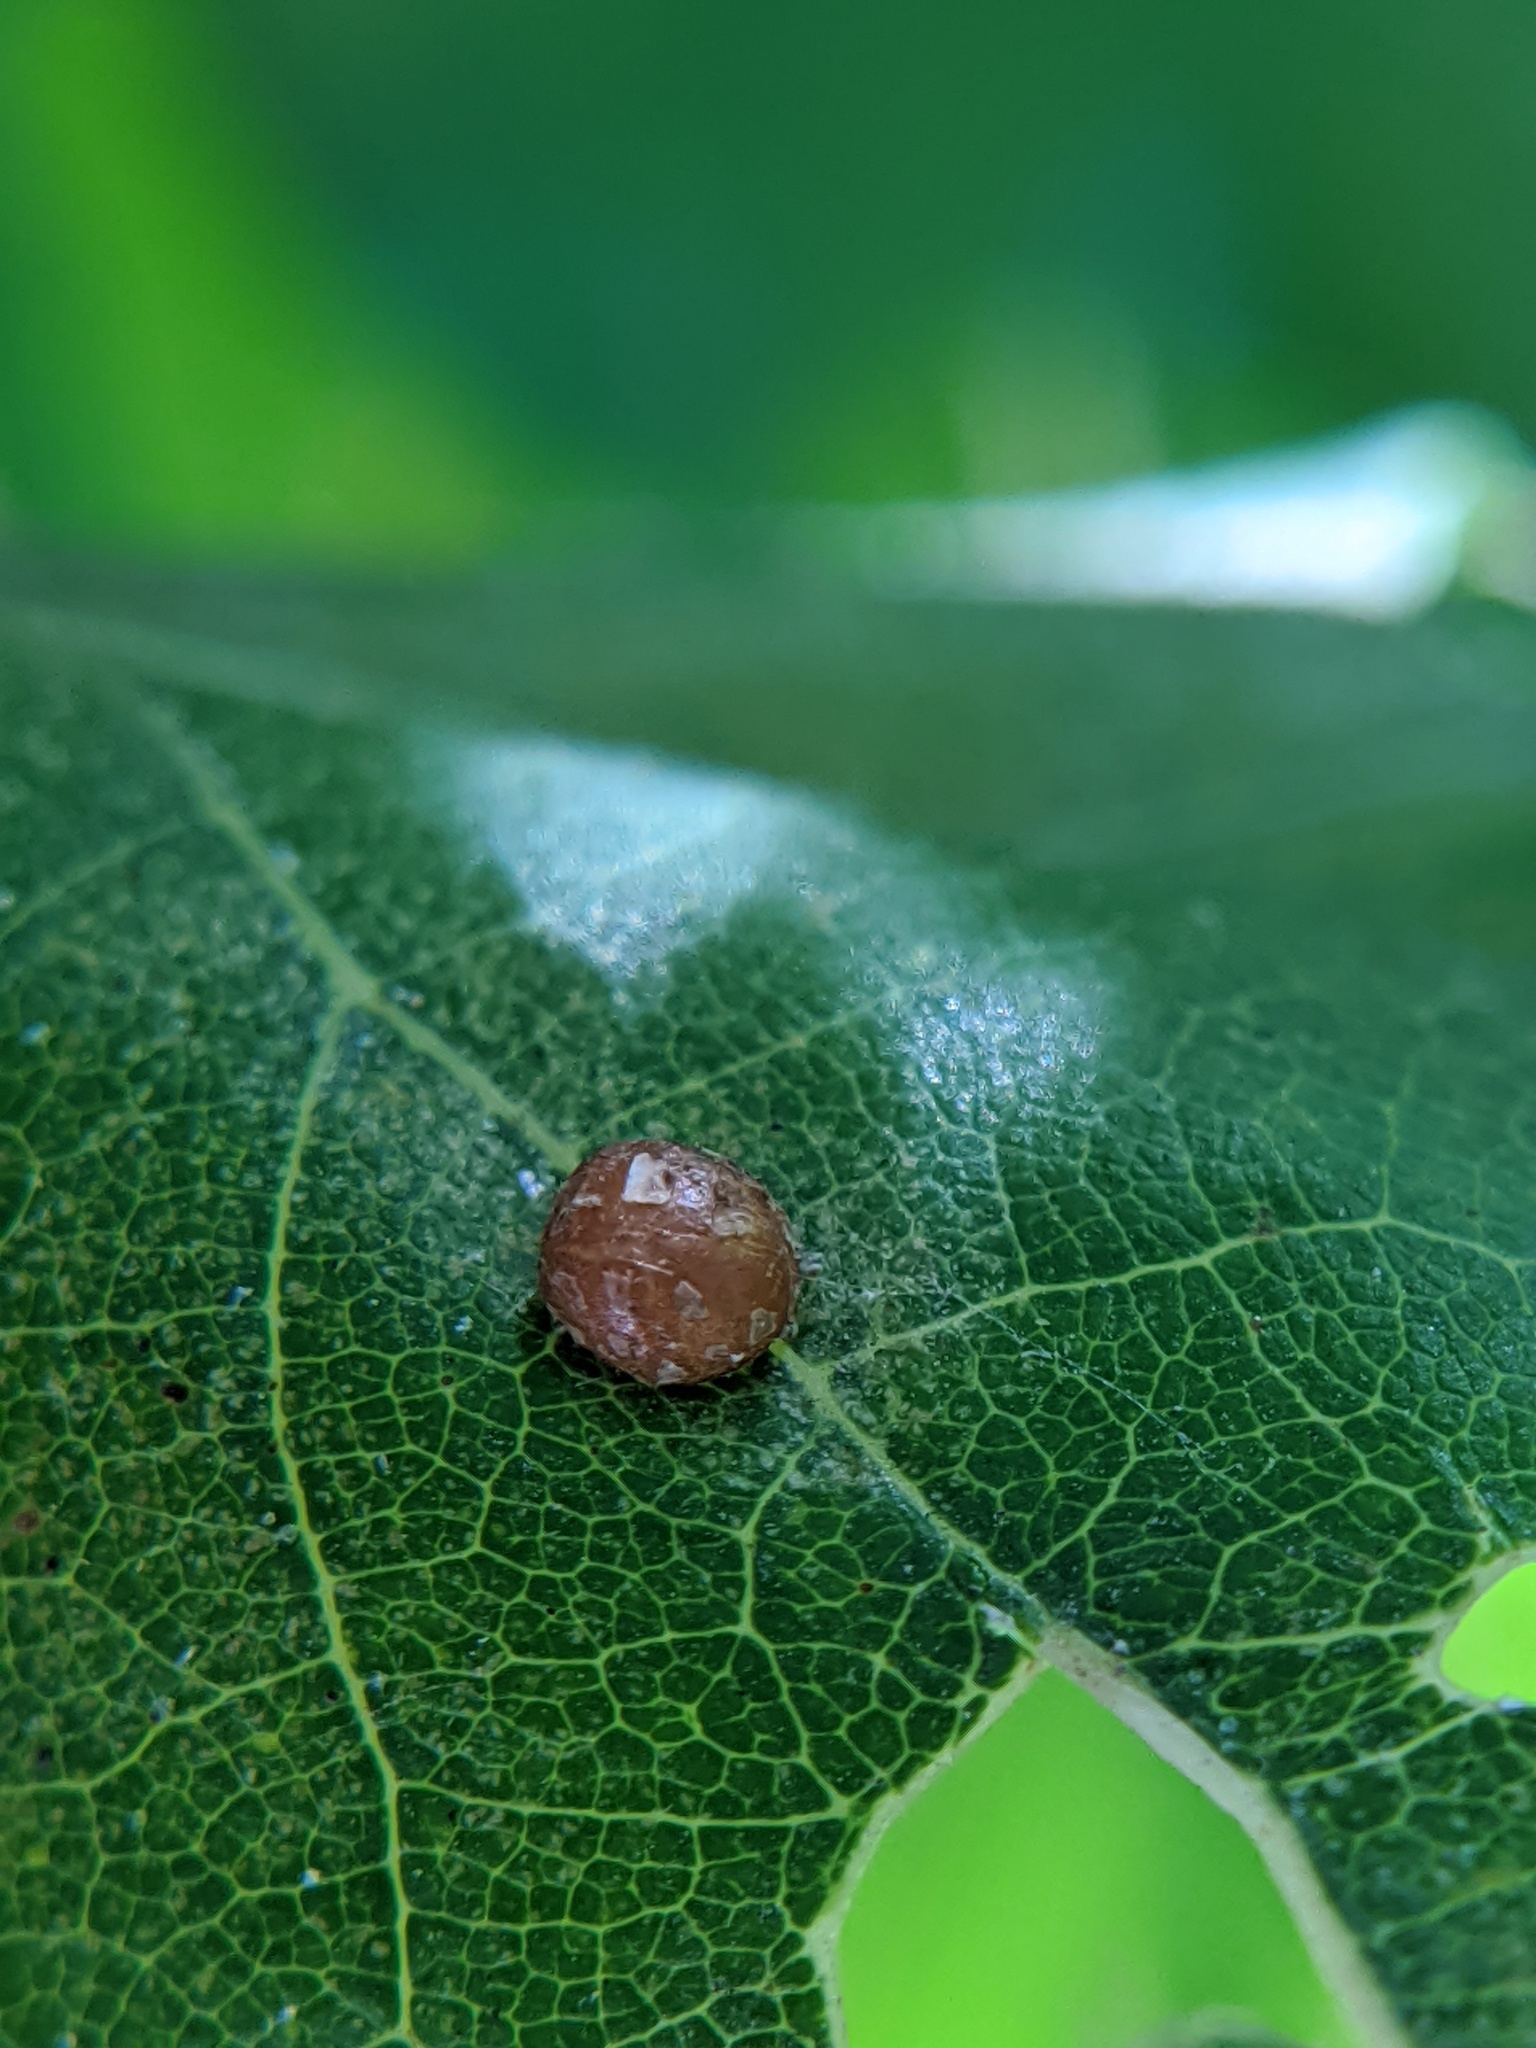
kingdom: Animalia
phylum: Arthropoda
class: Insecta
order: Diptera
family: Cecidomyiidae
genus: Polystepha
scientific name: Polystepha pilulae
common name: Oak leaf gall midge
